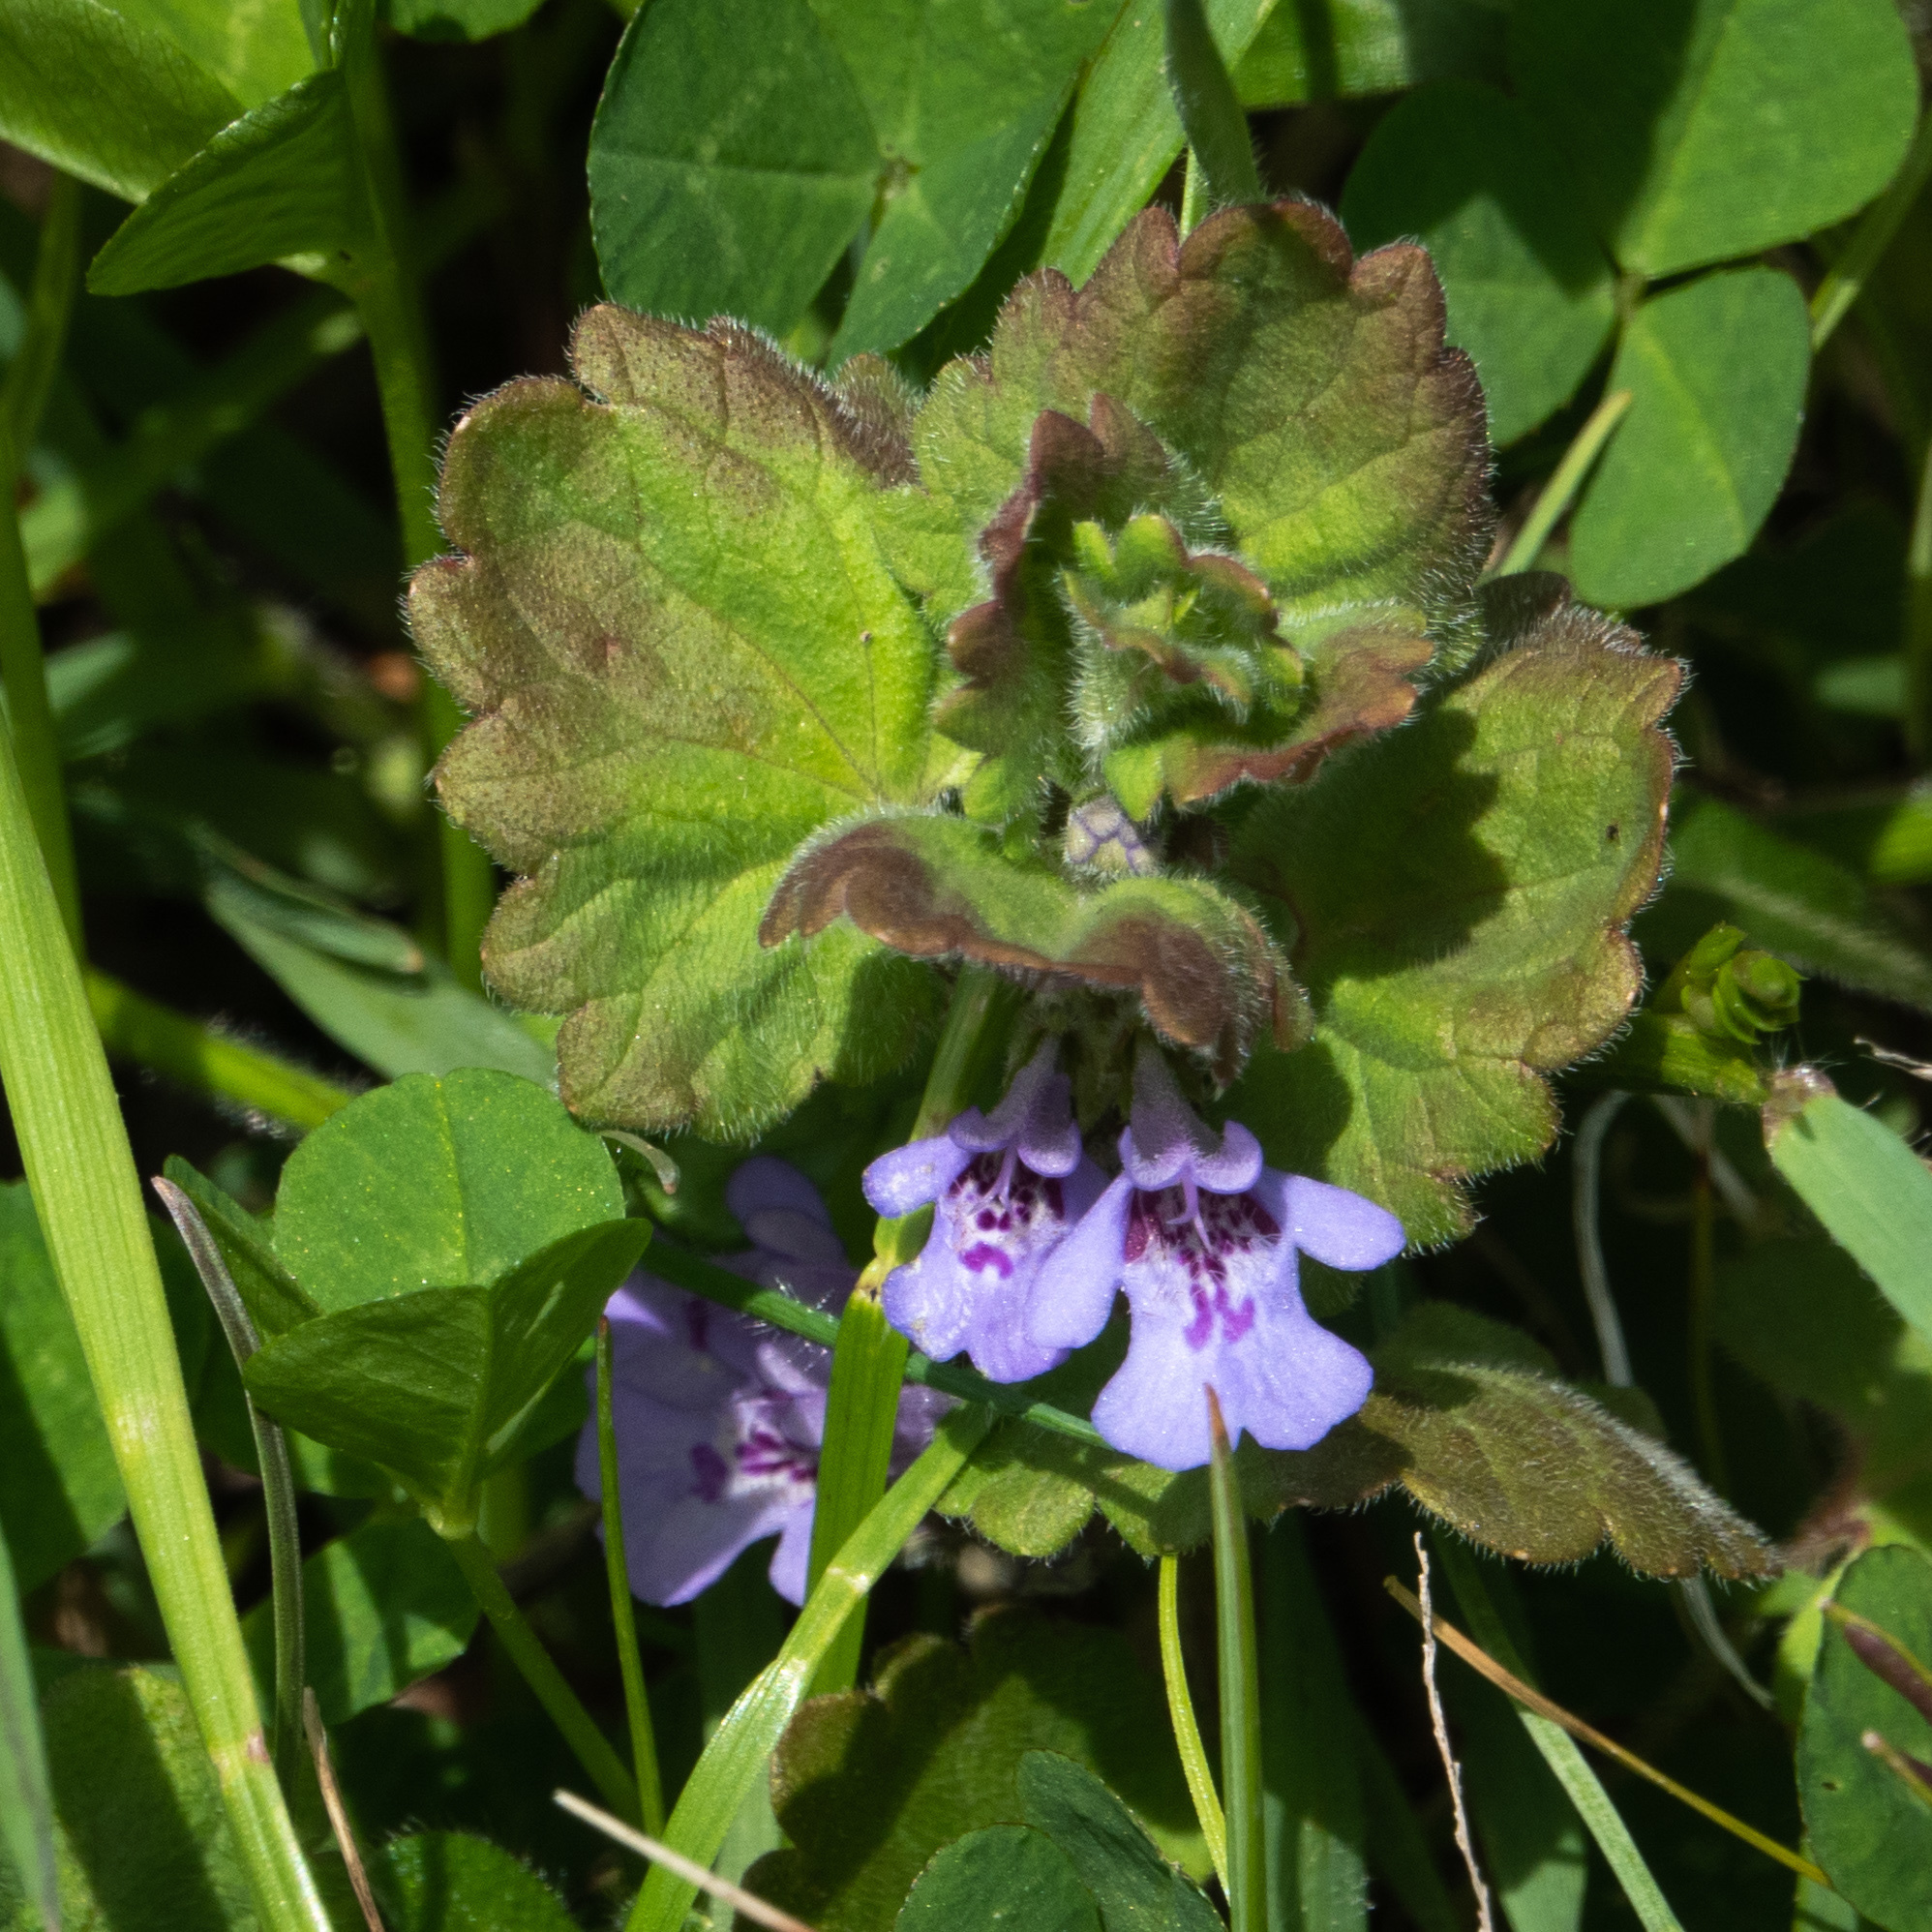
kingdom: Plantae
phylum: Tracheophyta
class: Magnoliopsida
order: Lamiales
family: Lamiaceae
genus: Glechoma
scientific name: Glechoma hederacea
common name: Ground ivy
